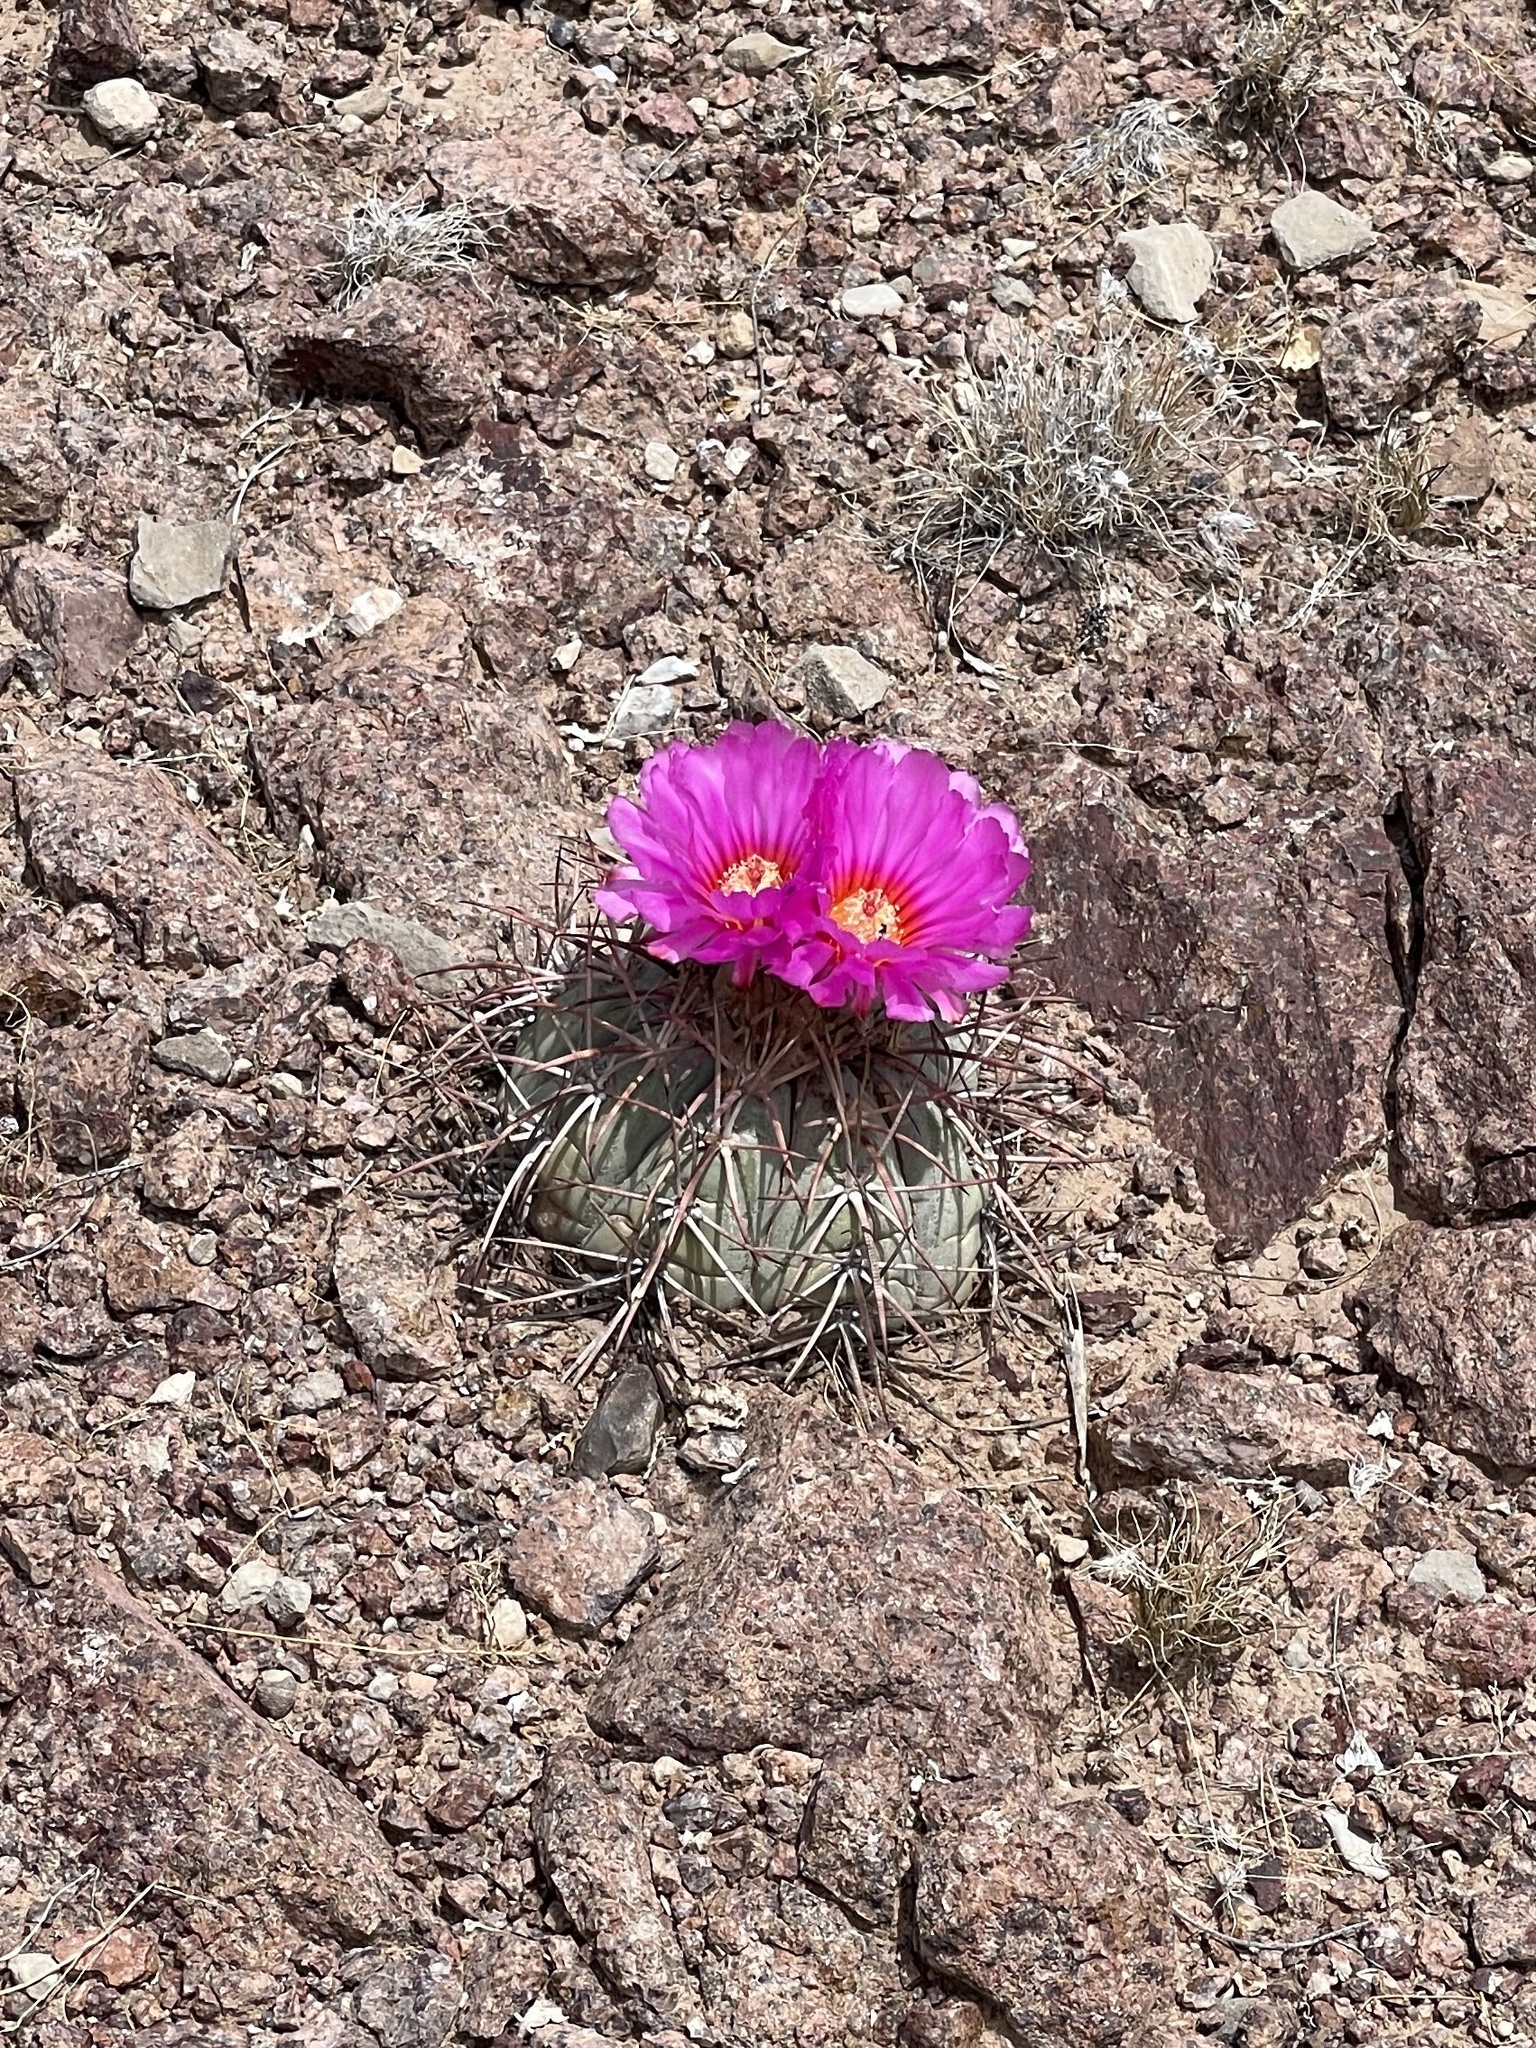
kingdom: Plantae
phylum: Tracheophyta
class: Magnoliopsida
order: Caryophyllales
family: Cactaceae
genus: Echinocactus
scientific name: Echinocactus horizonthalonius
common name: Devilshead
